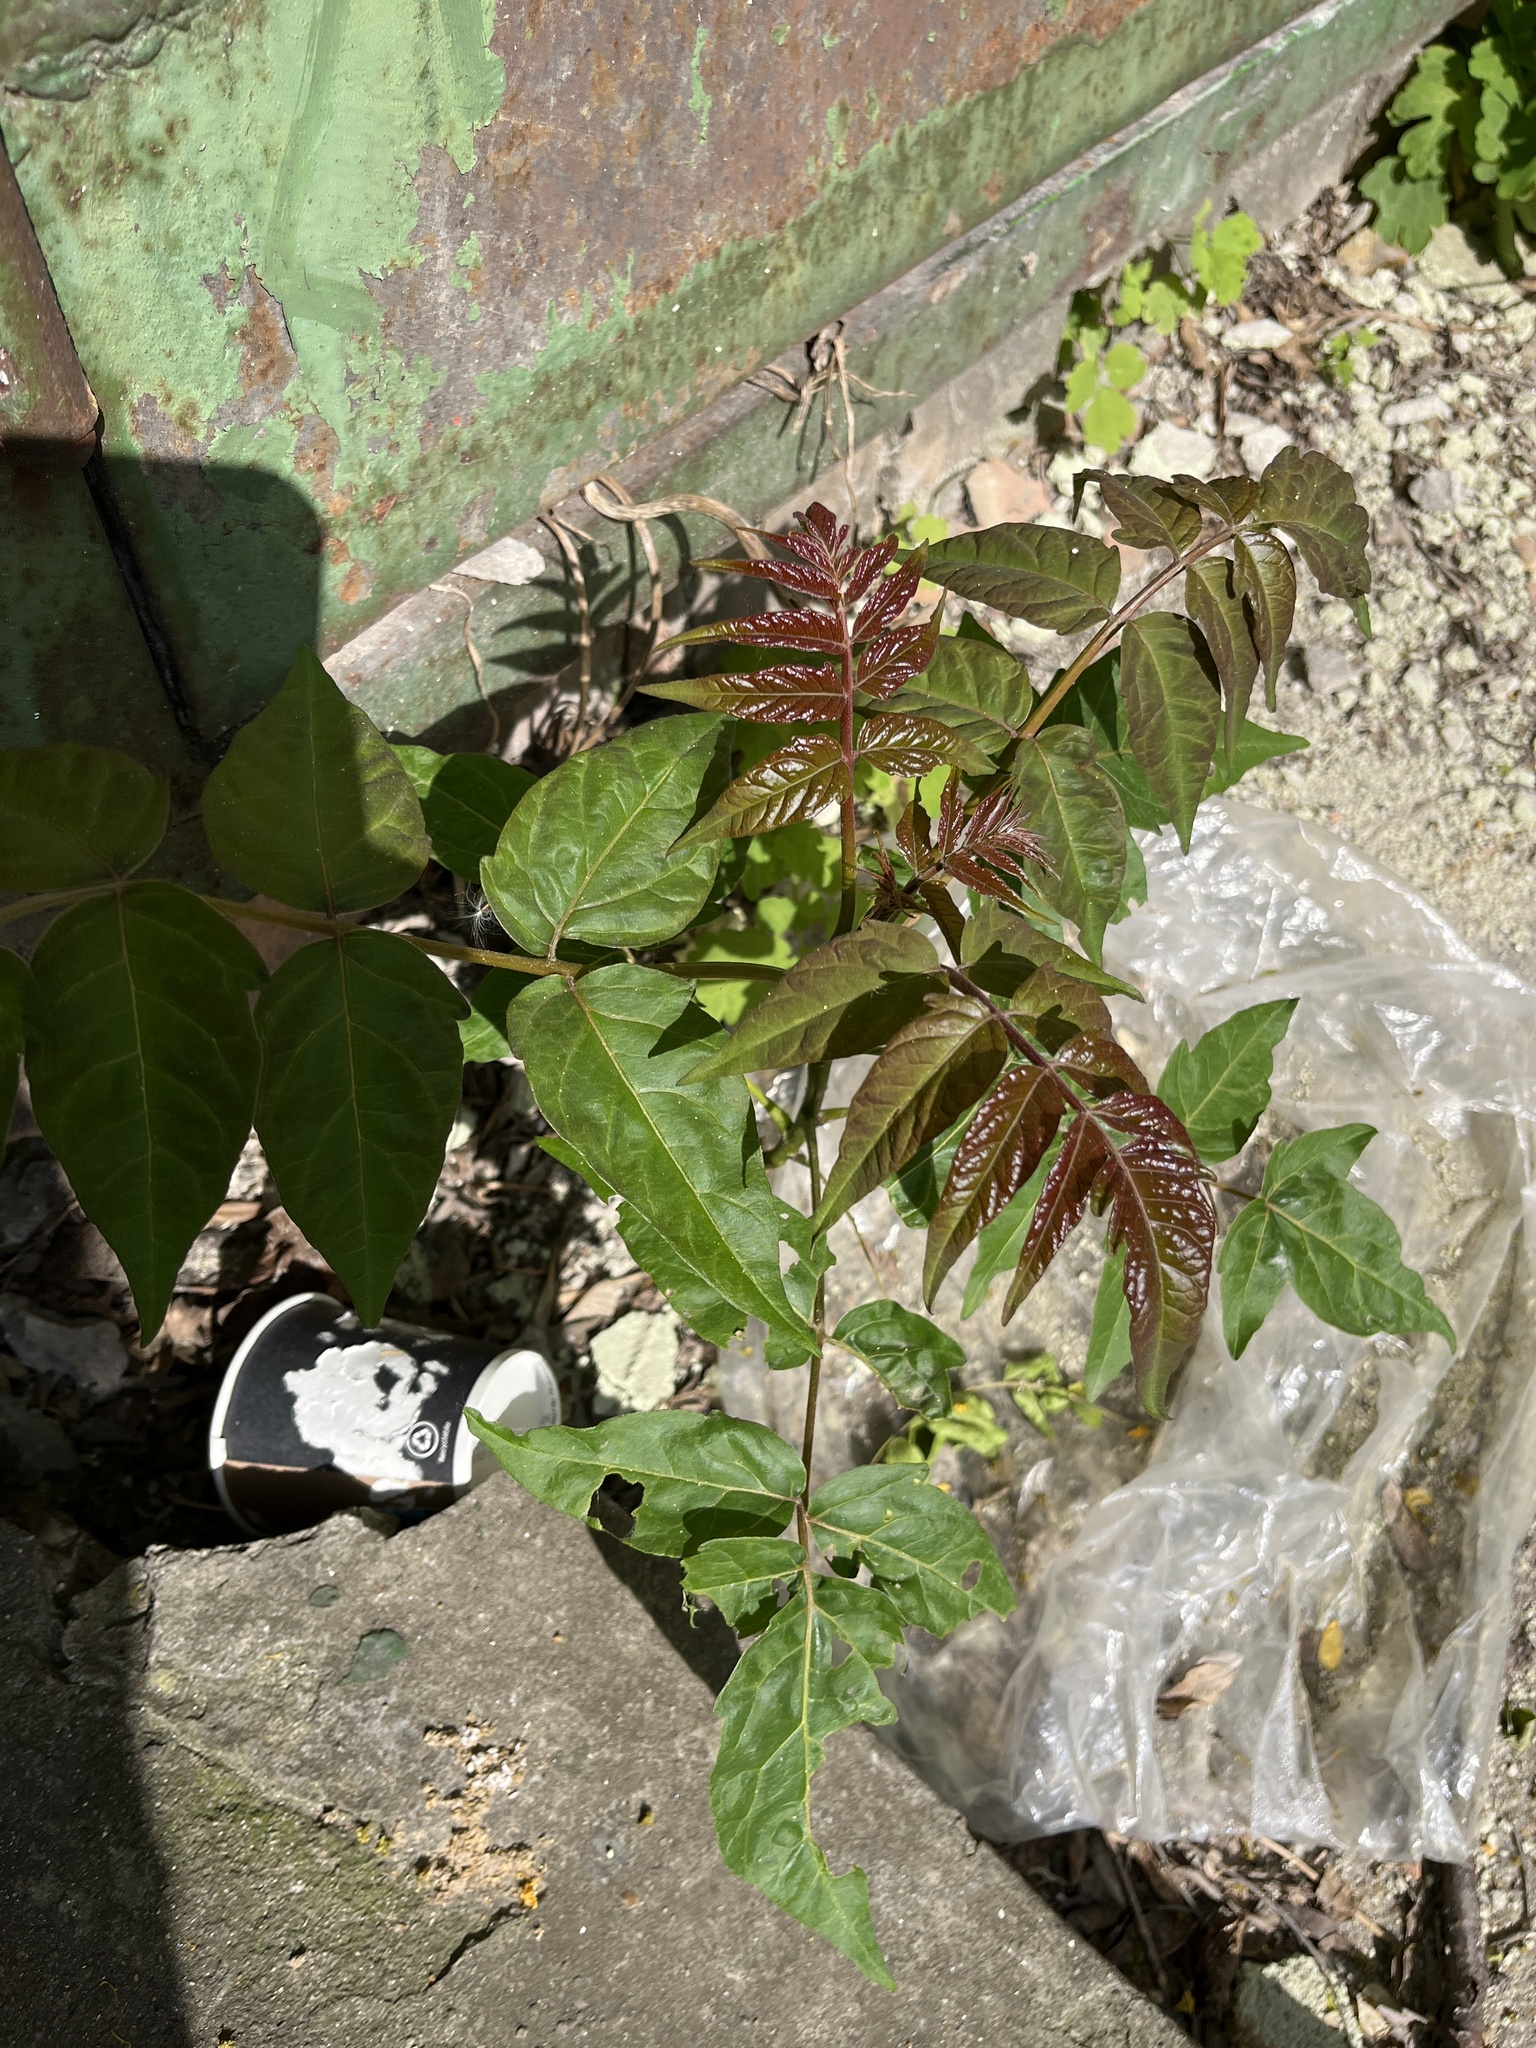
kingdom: Plantae
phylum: Tracheophyta
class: Magnoliopsida
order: Sapindales
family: Simaroubaceae
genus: Ailanthus
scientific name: Ailanthus altissima
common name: Tree-of-heaven
